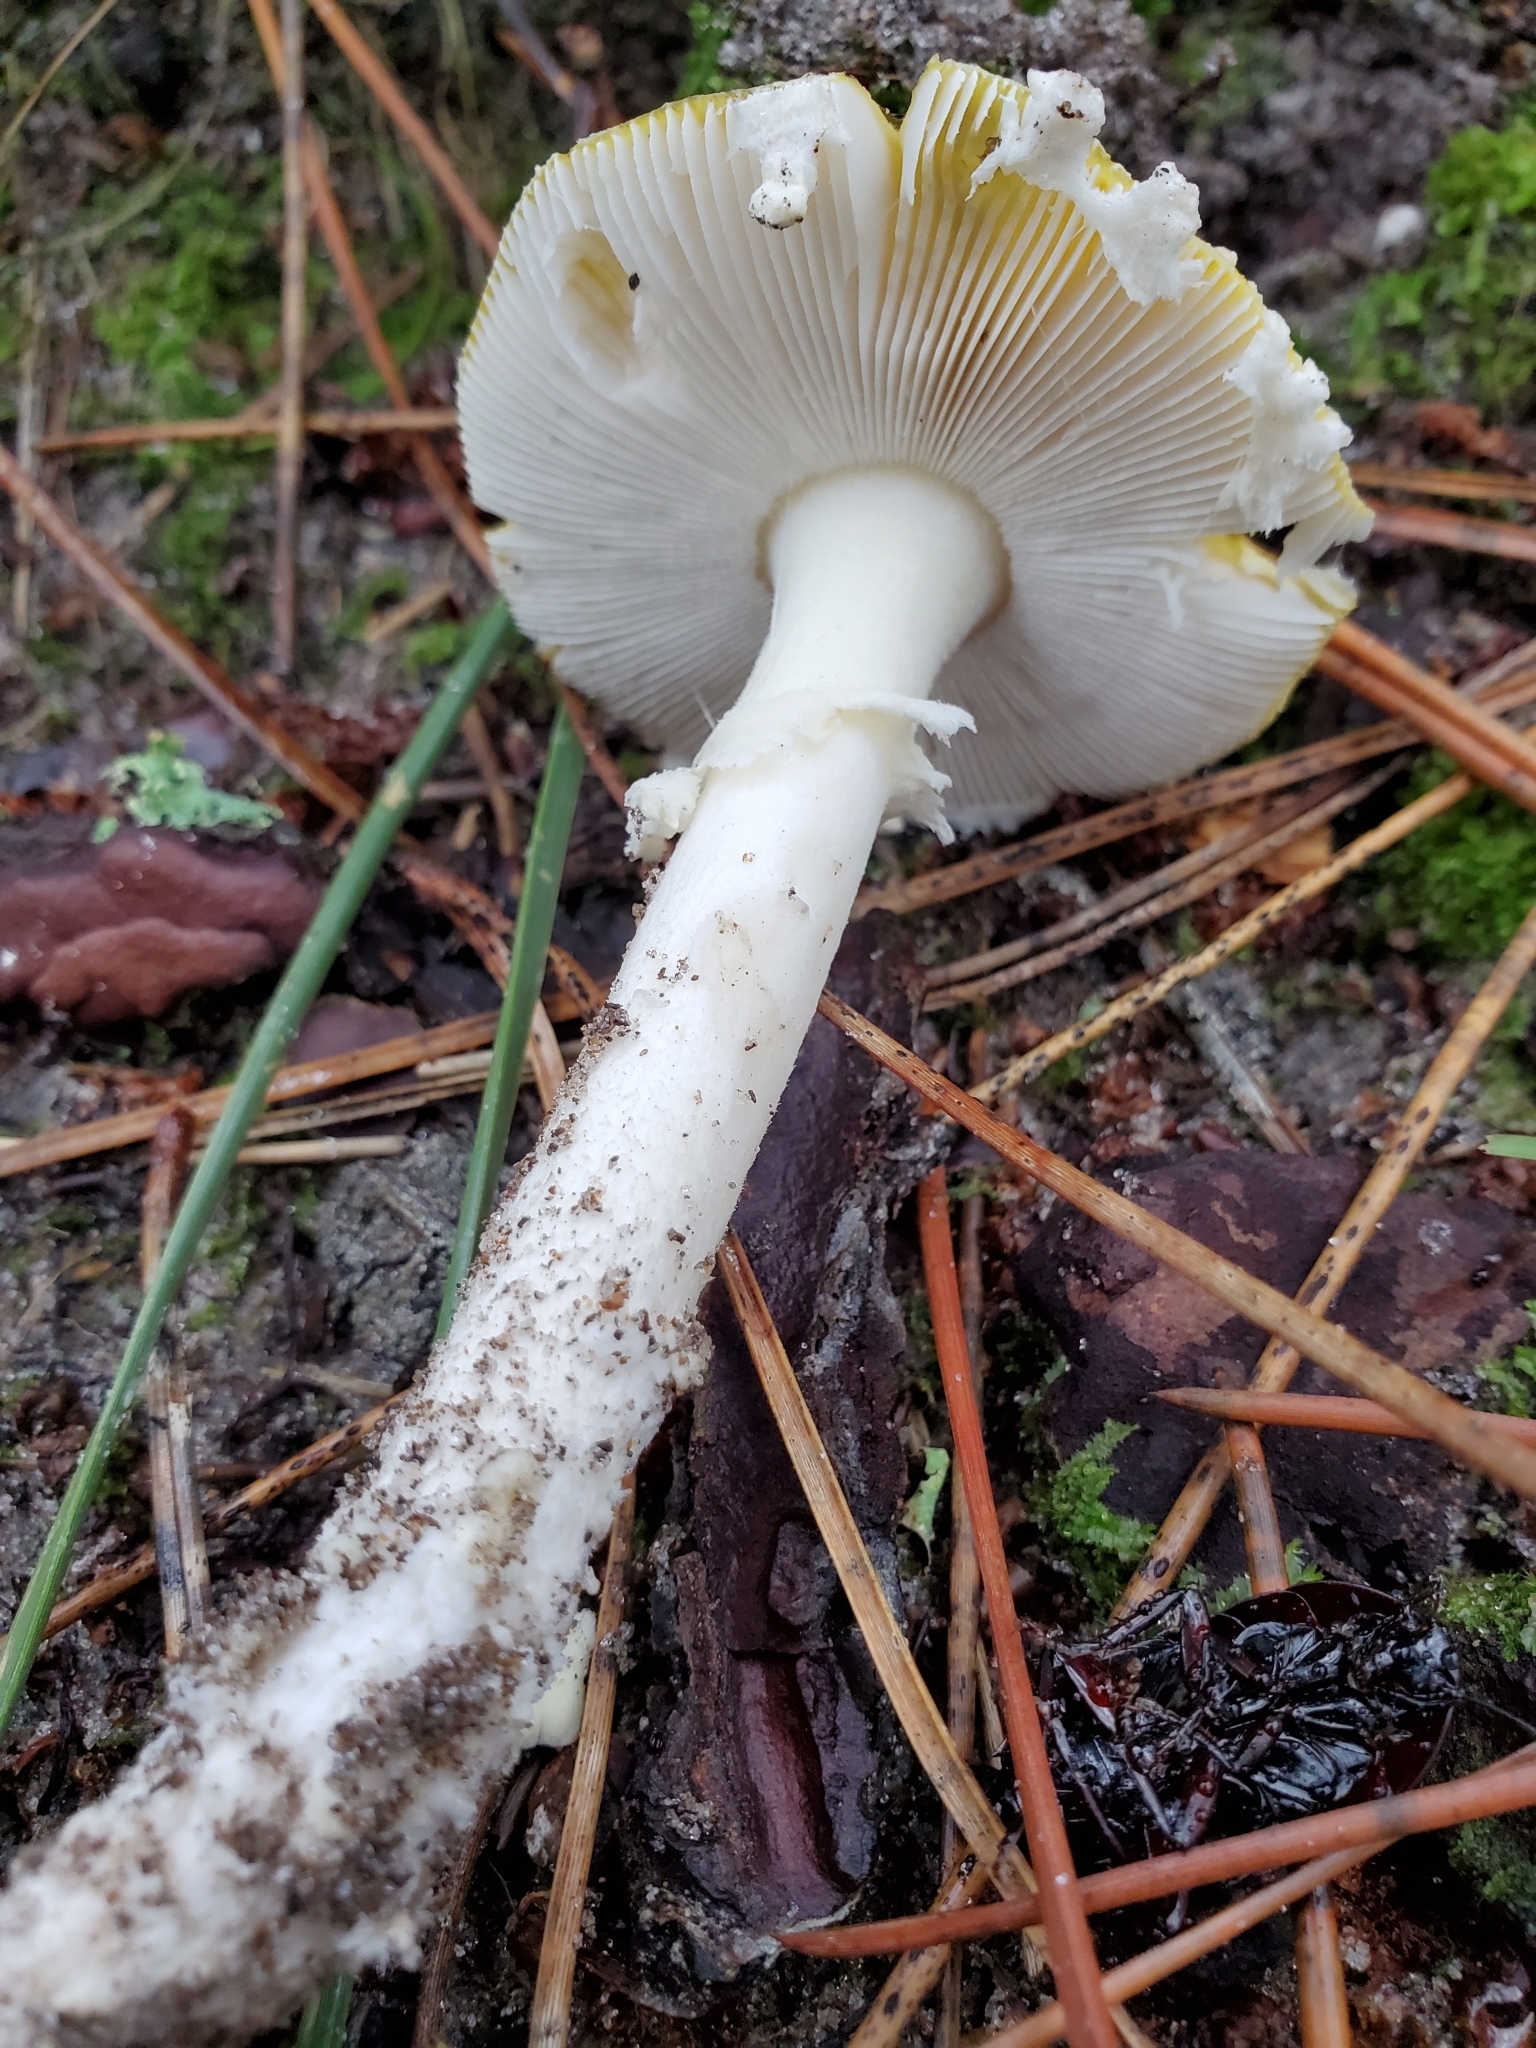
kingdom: Fungi
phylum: Basidiomycota
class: Agaricomycetes
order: Agaricales
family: Amanitaceae
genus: Amanita
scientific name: Amanita muscaria
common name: Fly agaric
